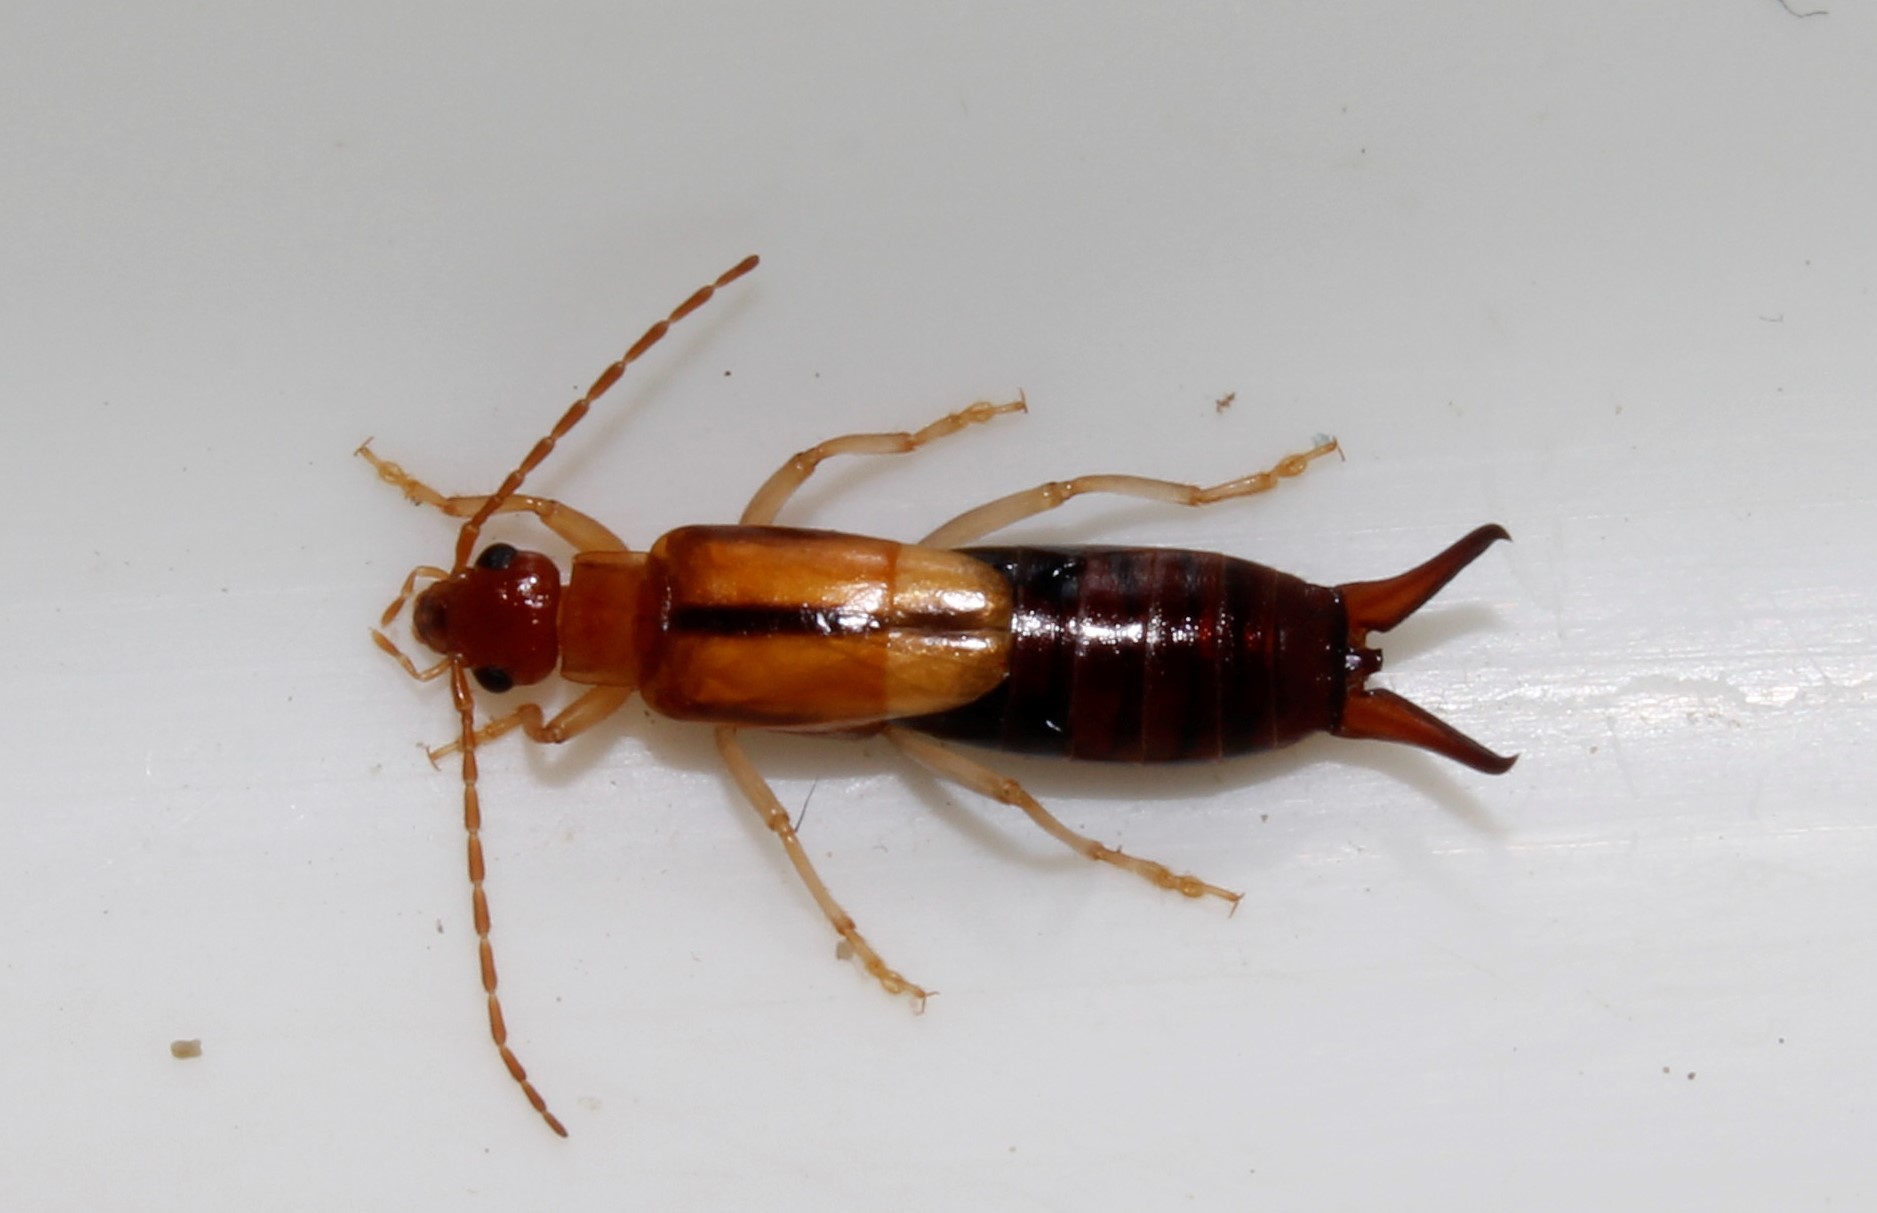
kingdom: Animalia
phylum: Arthropoda
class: Insecta
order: Dermaptera
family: Forficulidae
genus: Forficula
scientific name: Forficula lucasi
